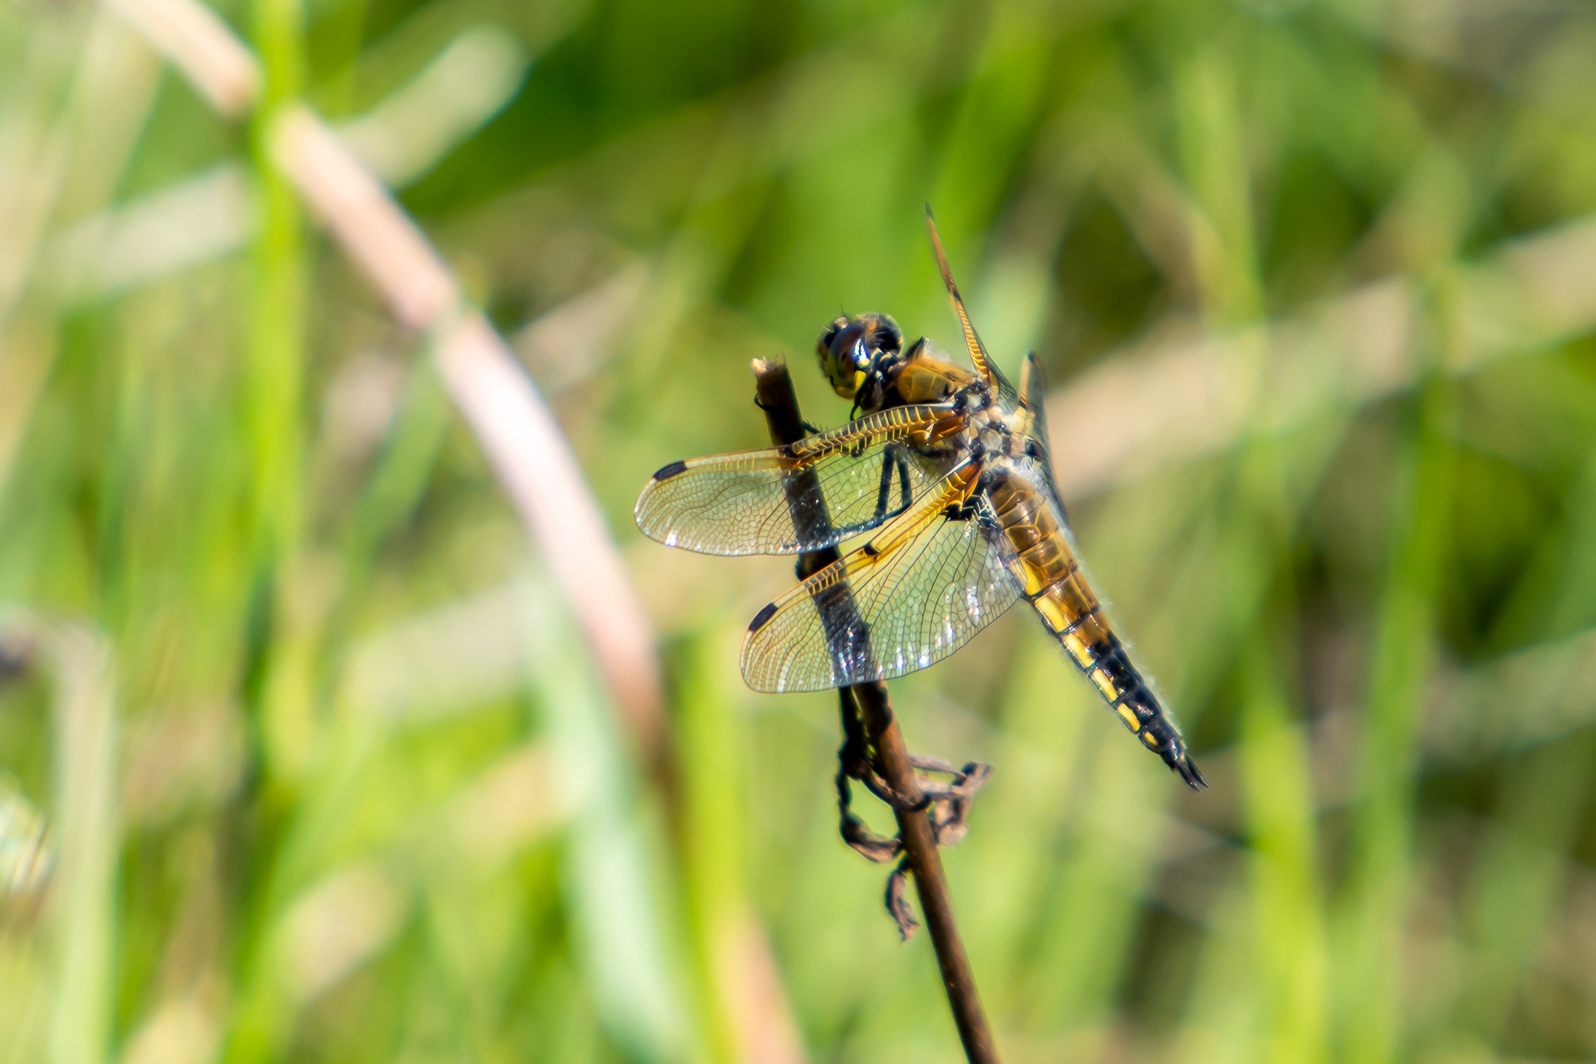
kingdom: Animalia
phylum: Arthropoda
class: Insecta
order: Odonata
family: Libellulidae
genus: Libellula
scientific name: Libellula quadrimaculata
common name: Four-spotted chaser
